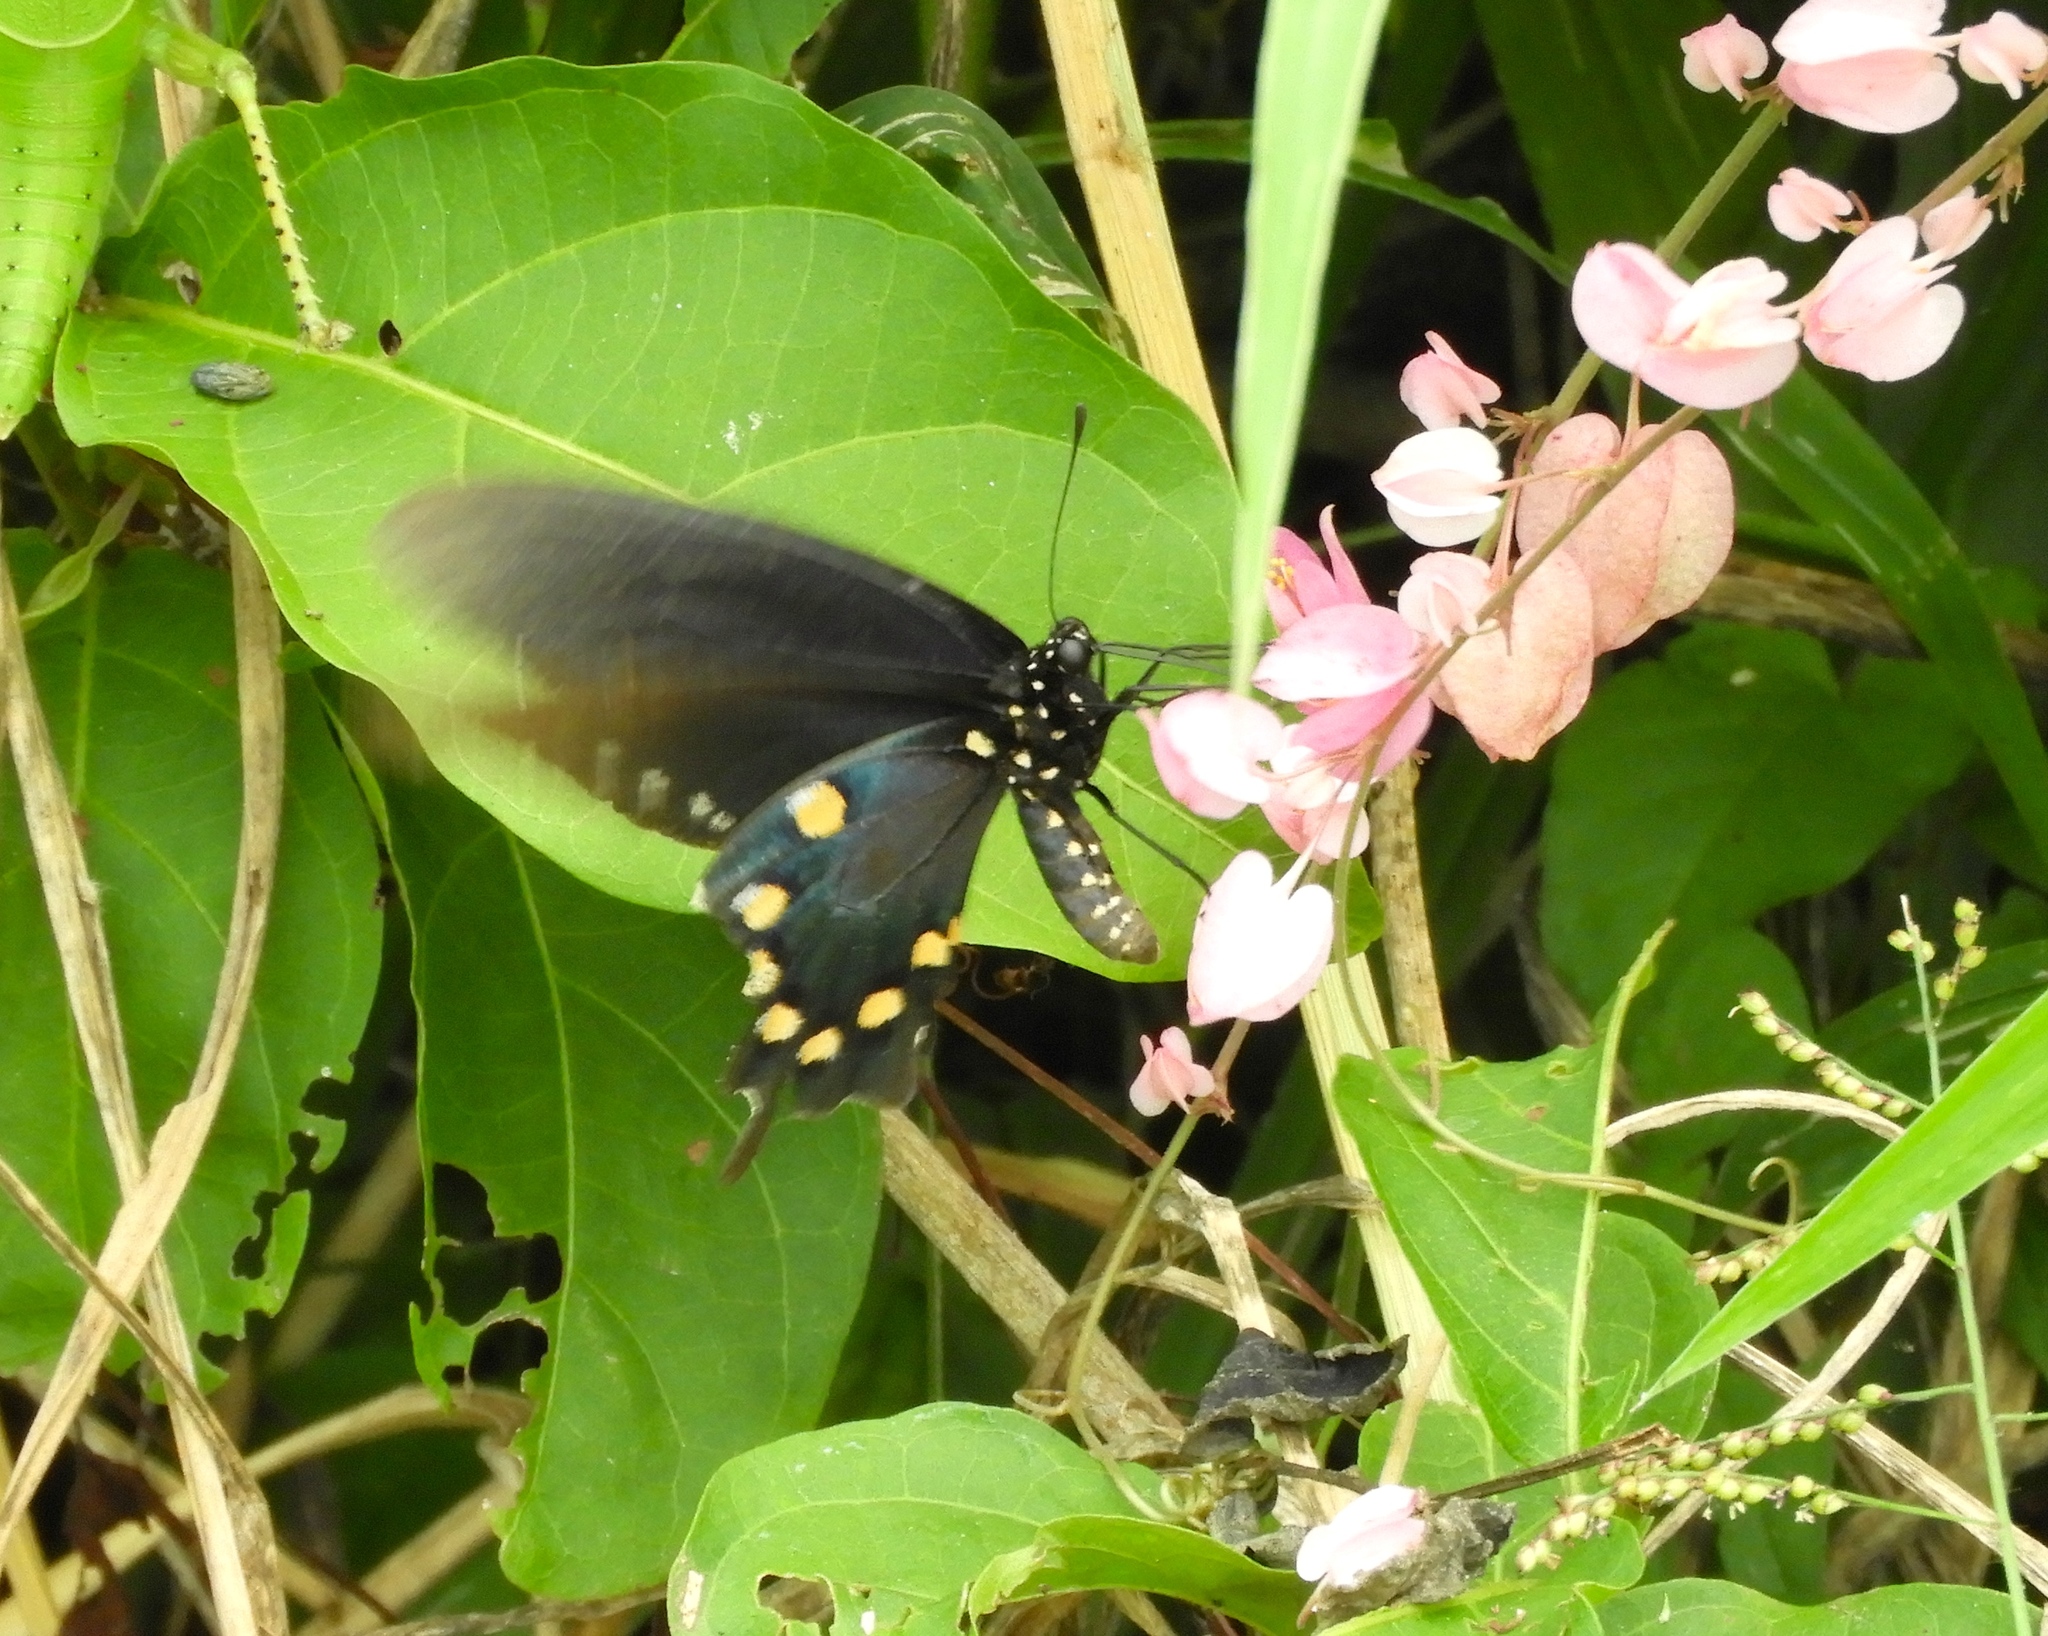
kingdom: Animalia
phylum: Arthropoda
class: Insecta
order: Lepidoptera
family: Papilionidae
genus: Battus
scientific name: Battus philenor
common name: Pipevine swallowtail
